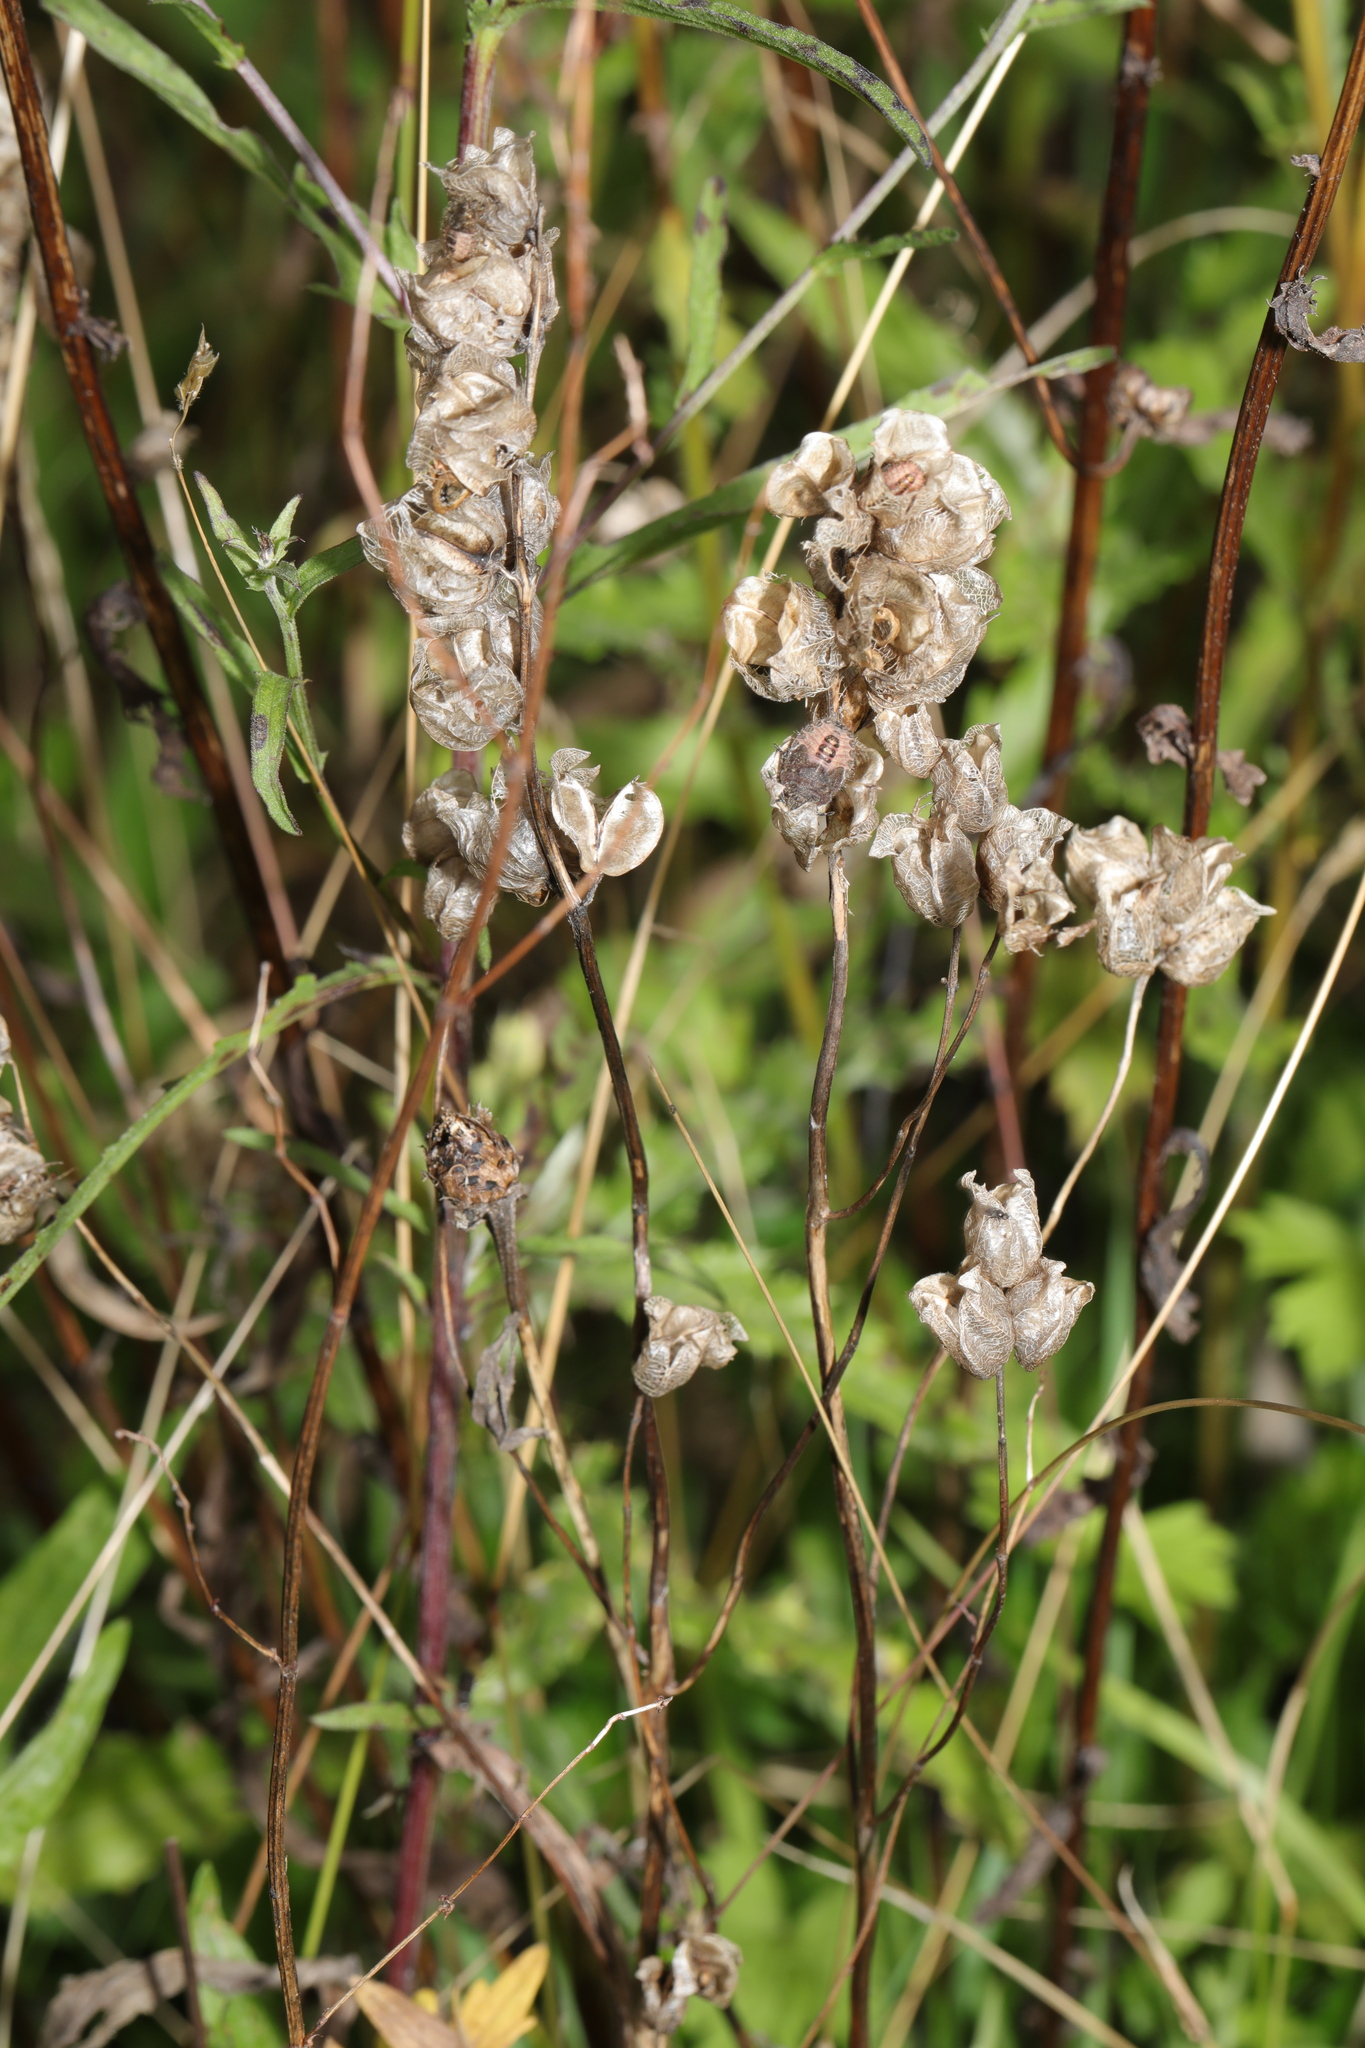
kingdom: Plantae
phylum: Tracheophyta
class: Magnoliopsida
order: Lamiales
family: Orobanchaceae
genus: Rhinanthus
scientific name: Rhinanthus minor
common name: Yellow-rattle
